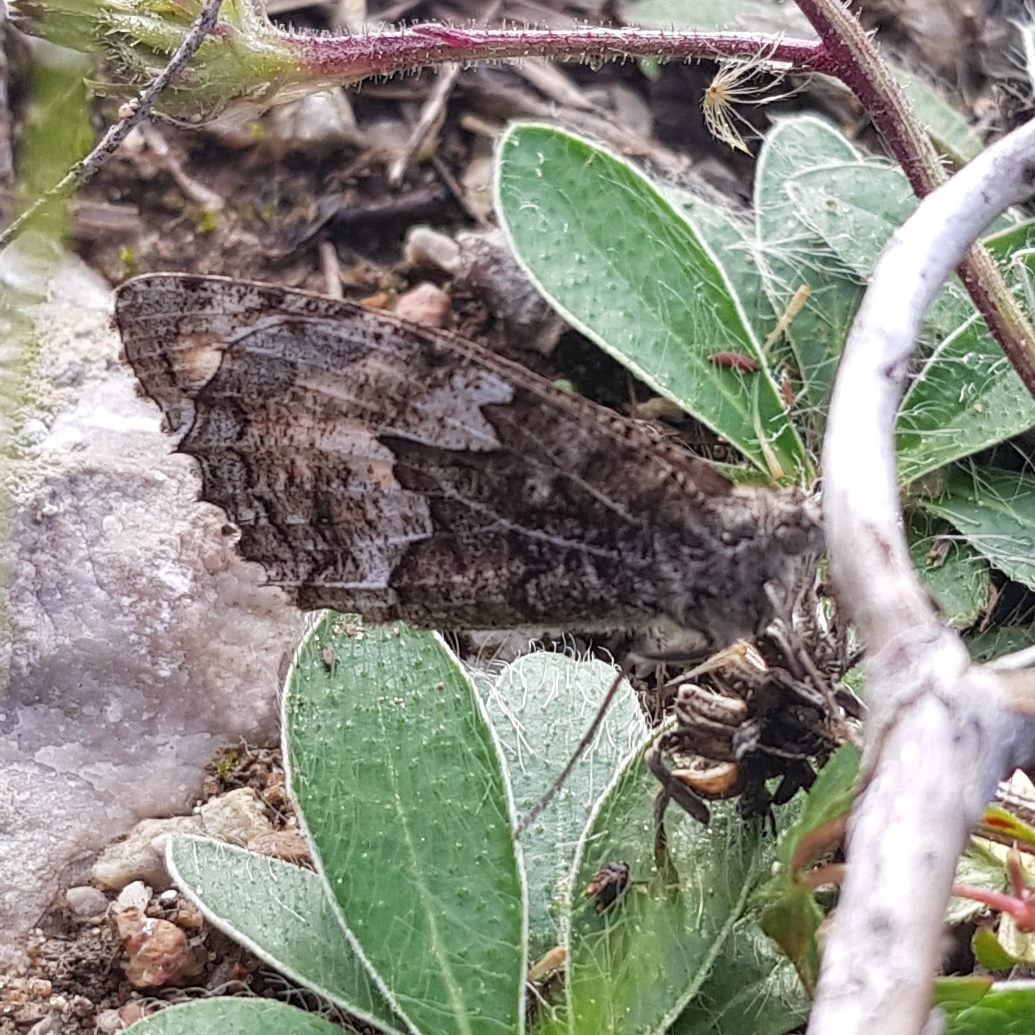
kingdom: Animalia
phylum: Arthropoda
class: Insecta
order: Lepidoptera
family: Nymphalidae
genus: Hipparchia
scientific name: Hipparchia semele
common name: Grayling
